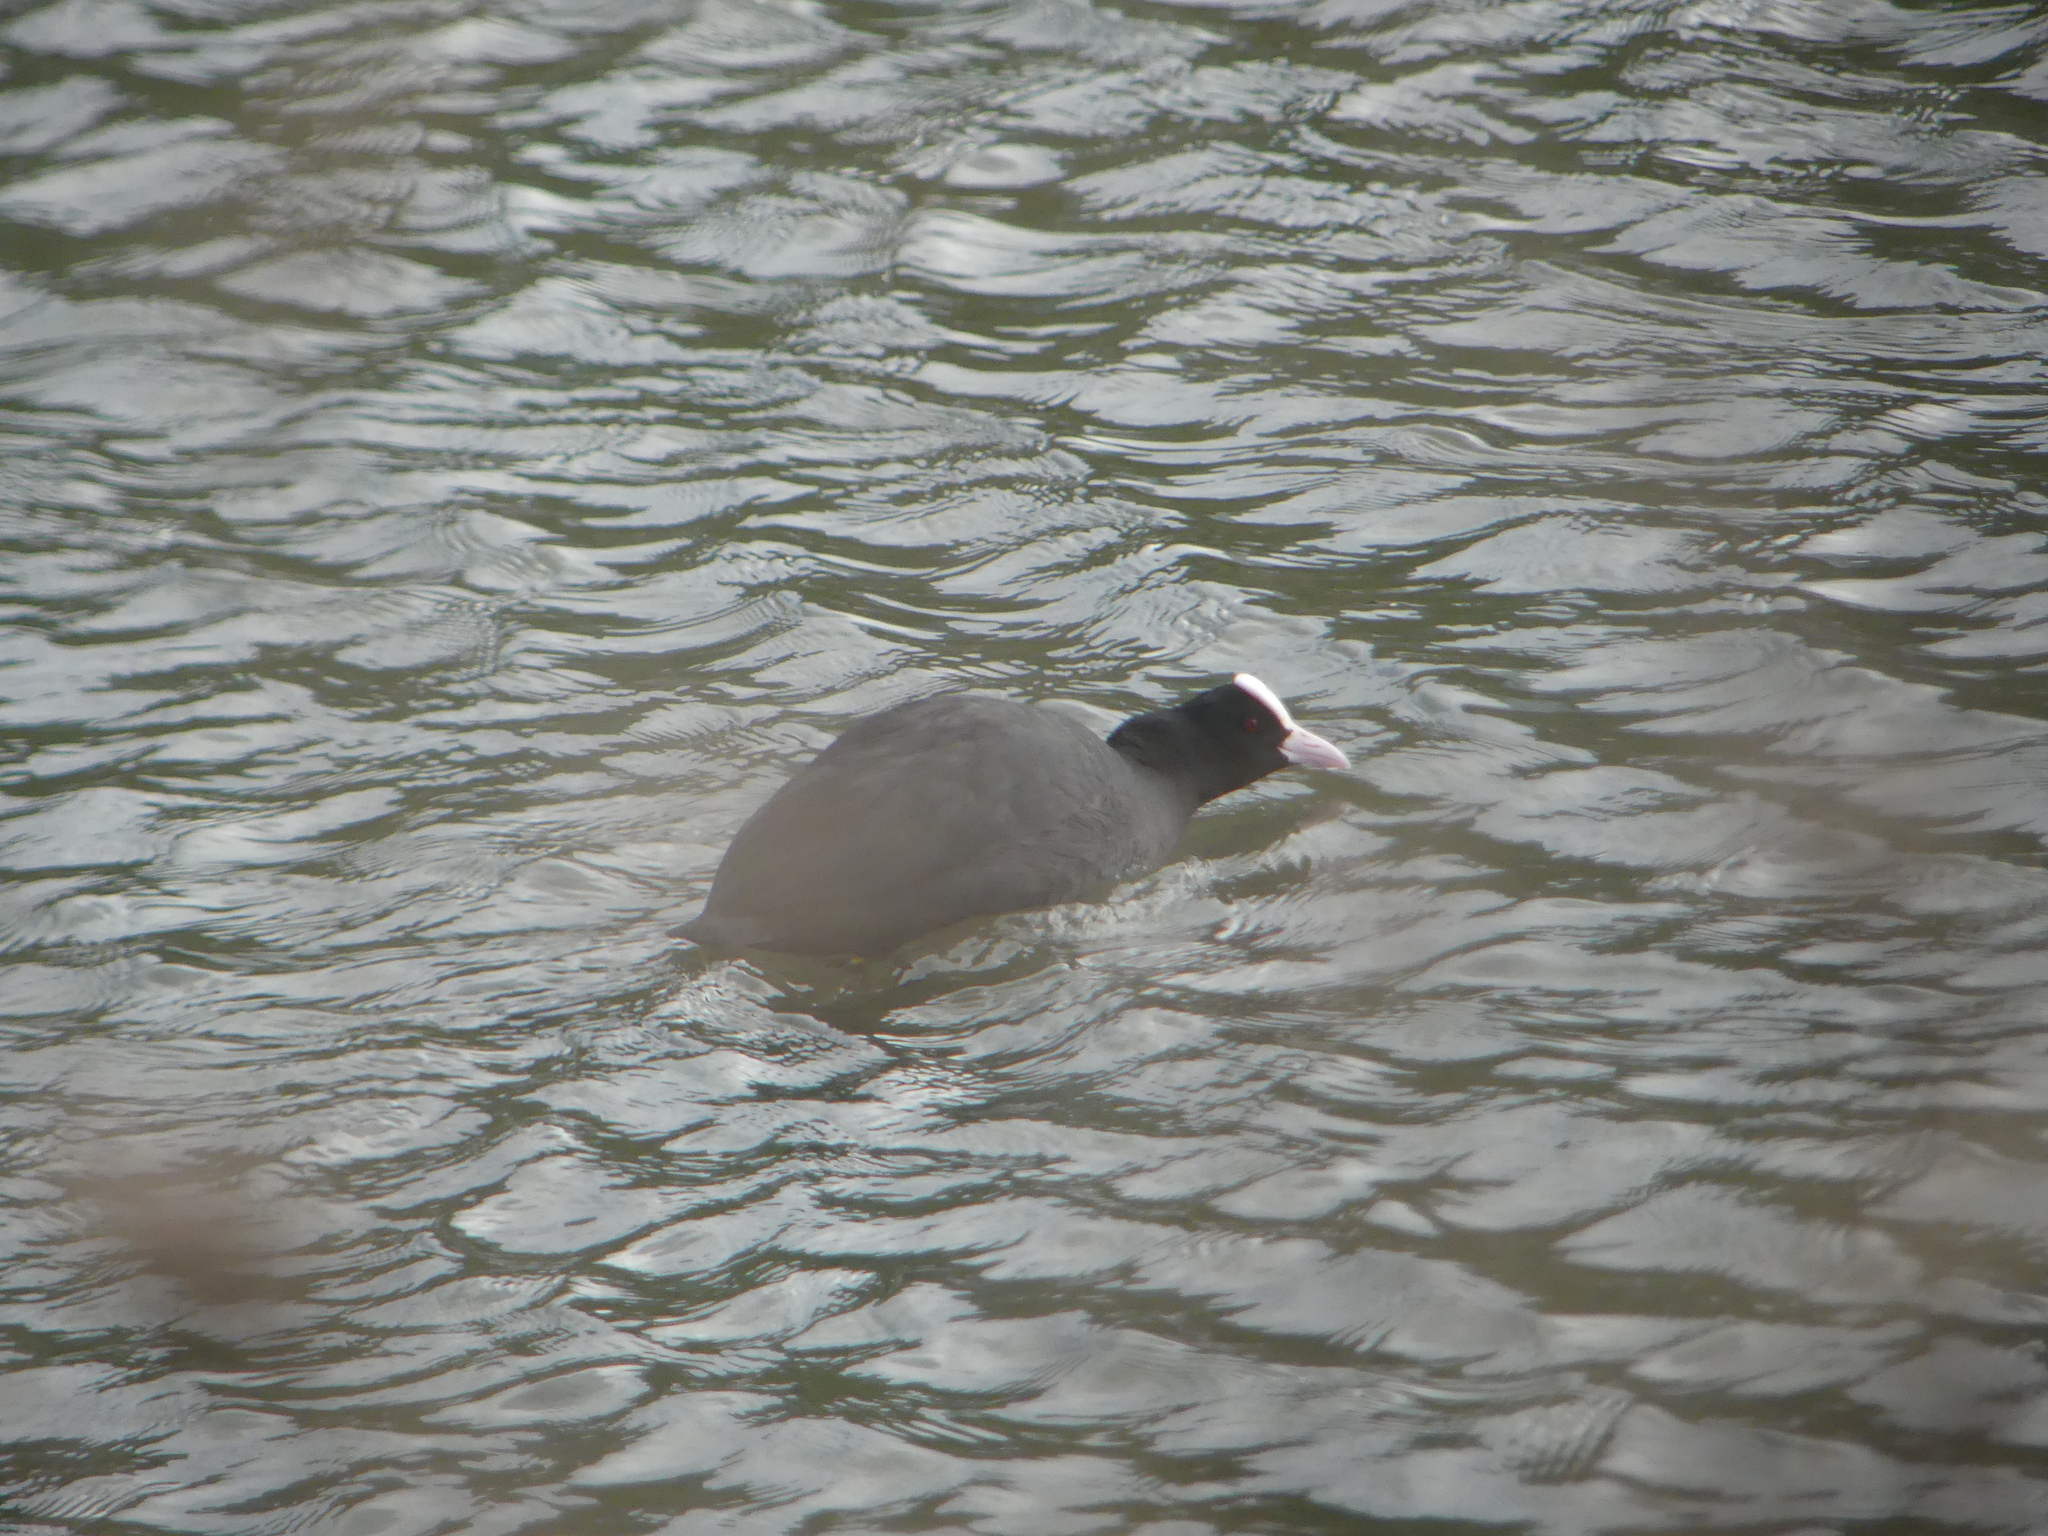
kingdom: Animalia
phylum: Chordata
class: Aves
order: Gruiformes
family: Rallidae
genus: Fulica
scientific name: Fulica atra
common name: Eurasian coot
